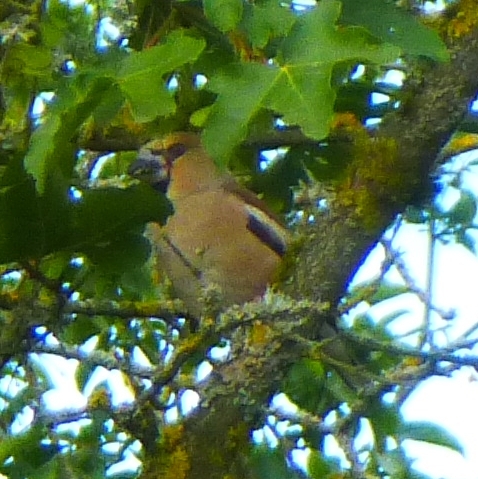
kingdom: Animalia
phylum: Chordata
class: Aves
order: Passeriformes
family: Fringillidae
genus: Coccothraustes
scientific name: Coccothraustes coccothraustes
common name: Hawfinch
